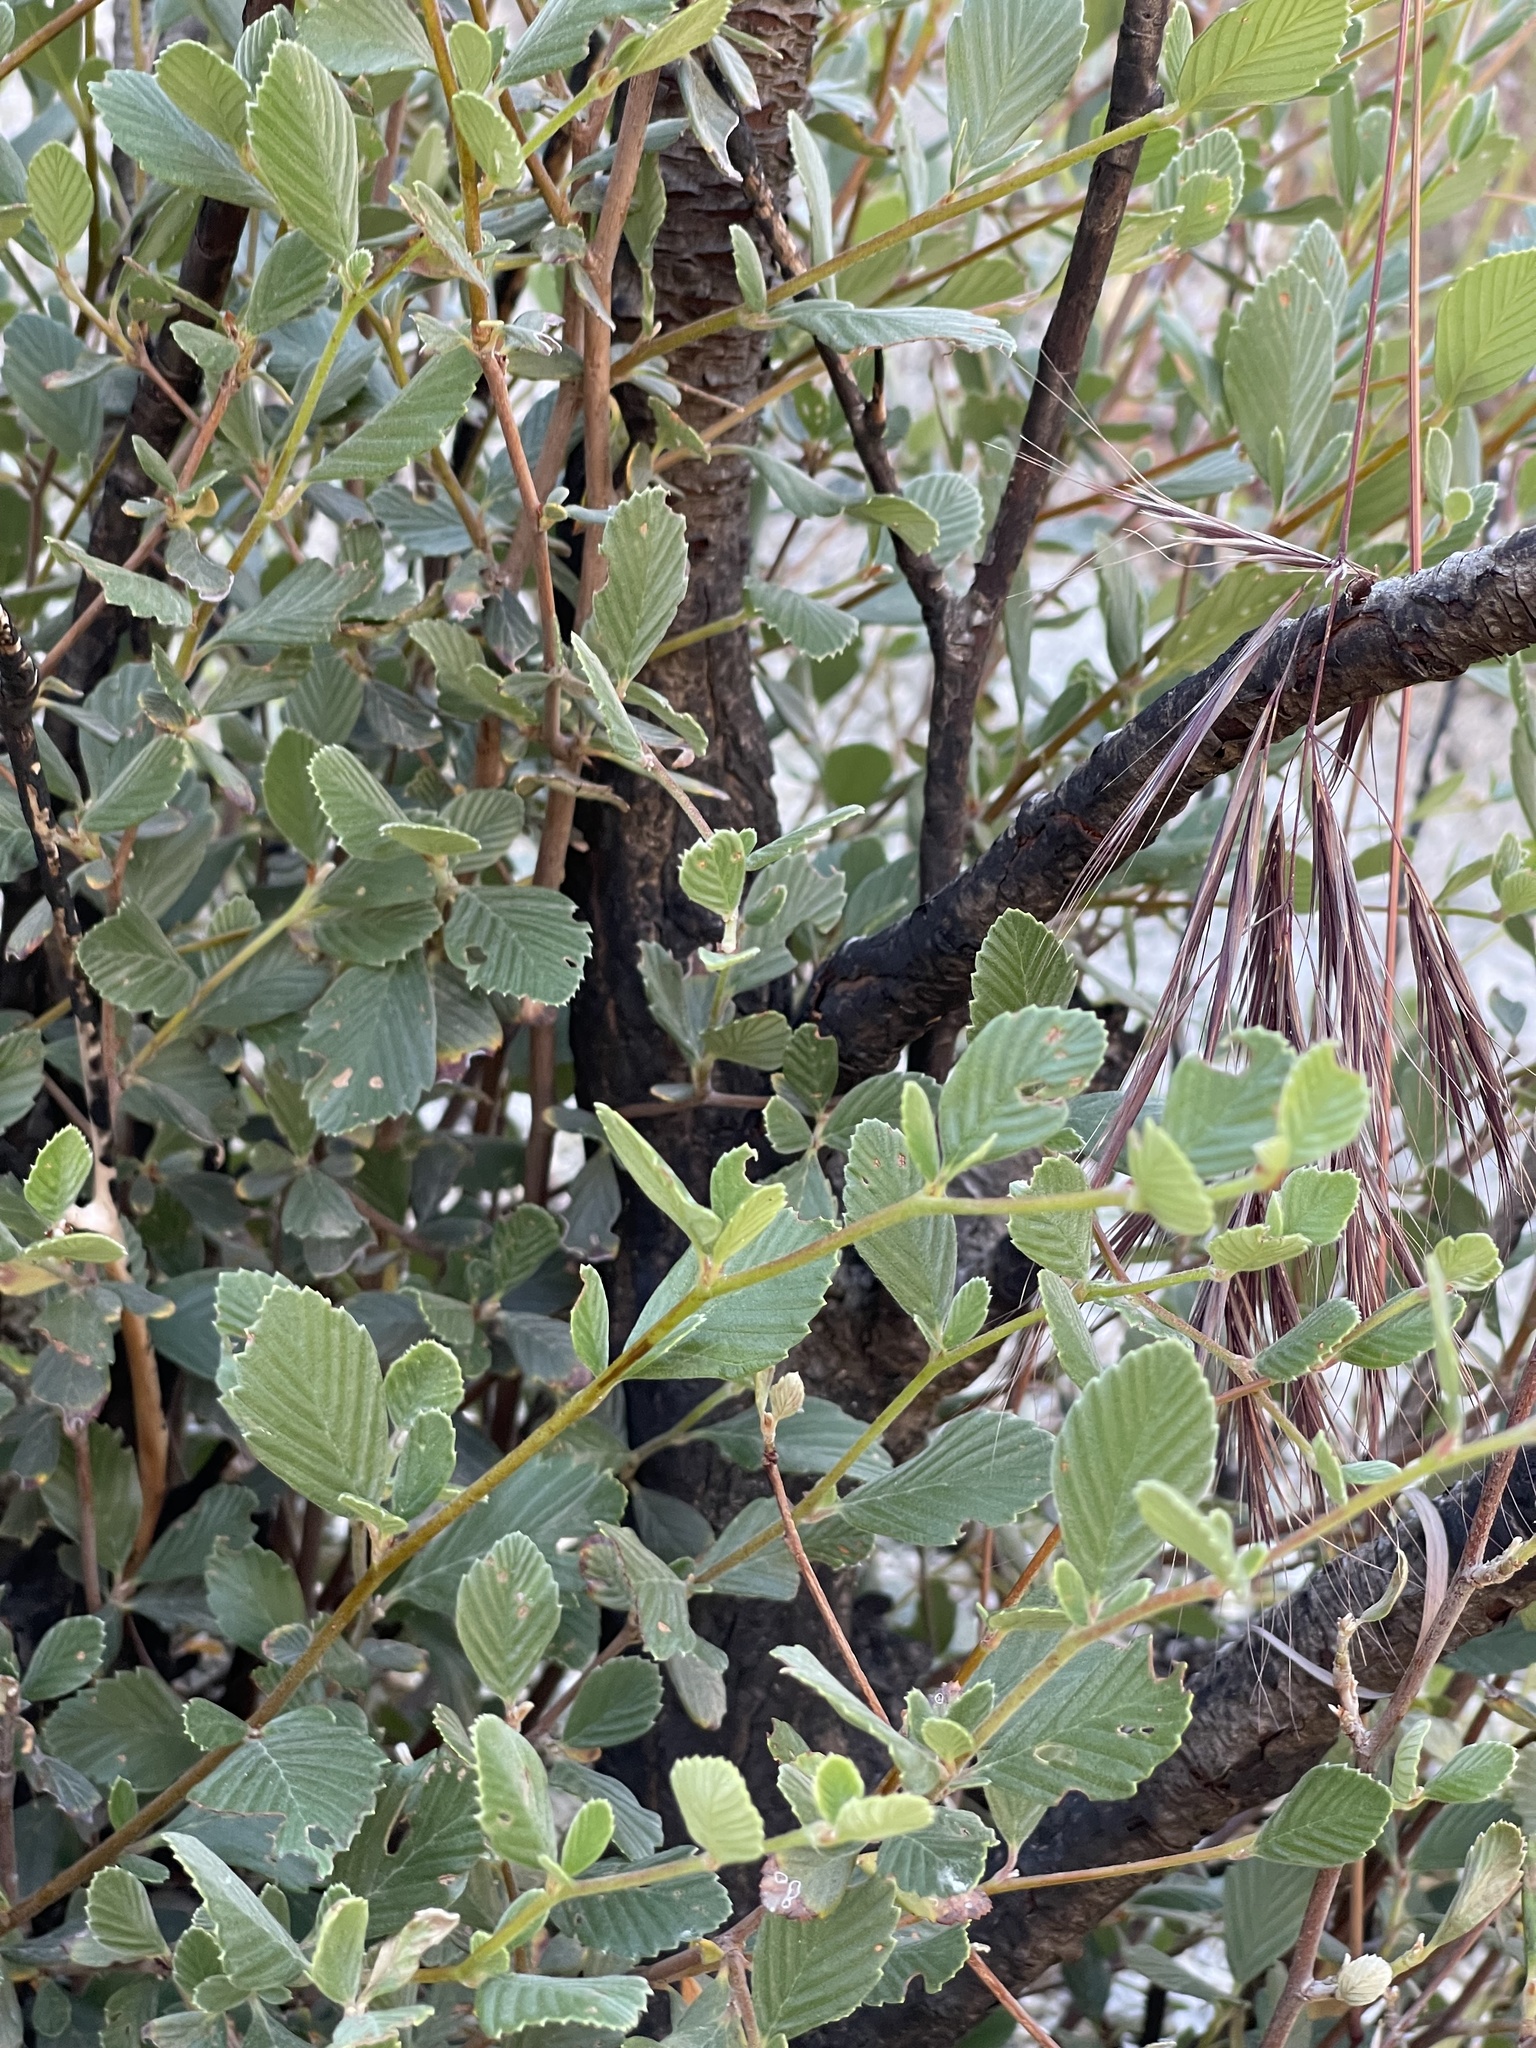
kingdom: Plantae
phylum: Tracheophyta
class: Magnoliopsida
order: Rosales
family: Rosaceae
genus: Cercocarpus
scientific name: Cercocarpus betuloides
